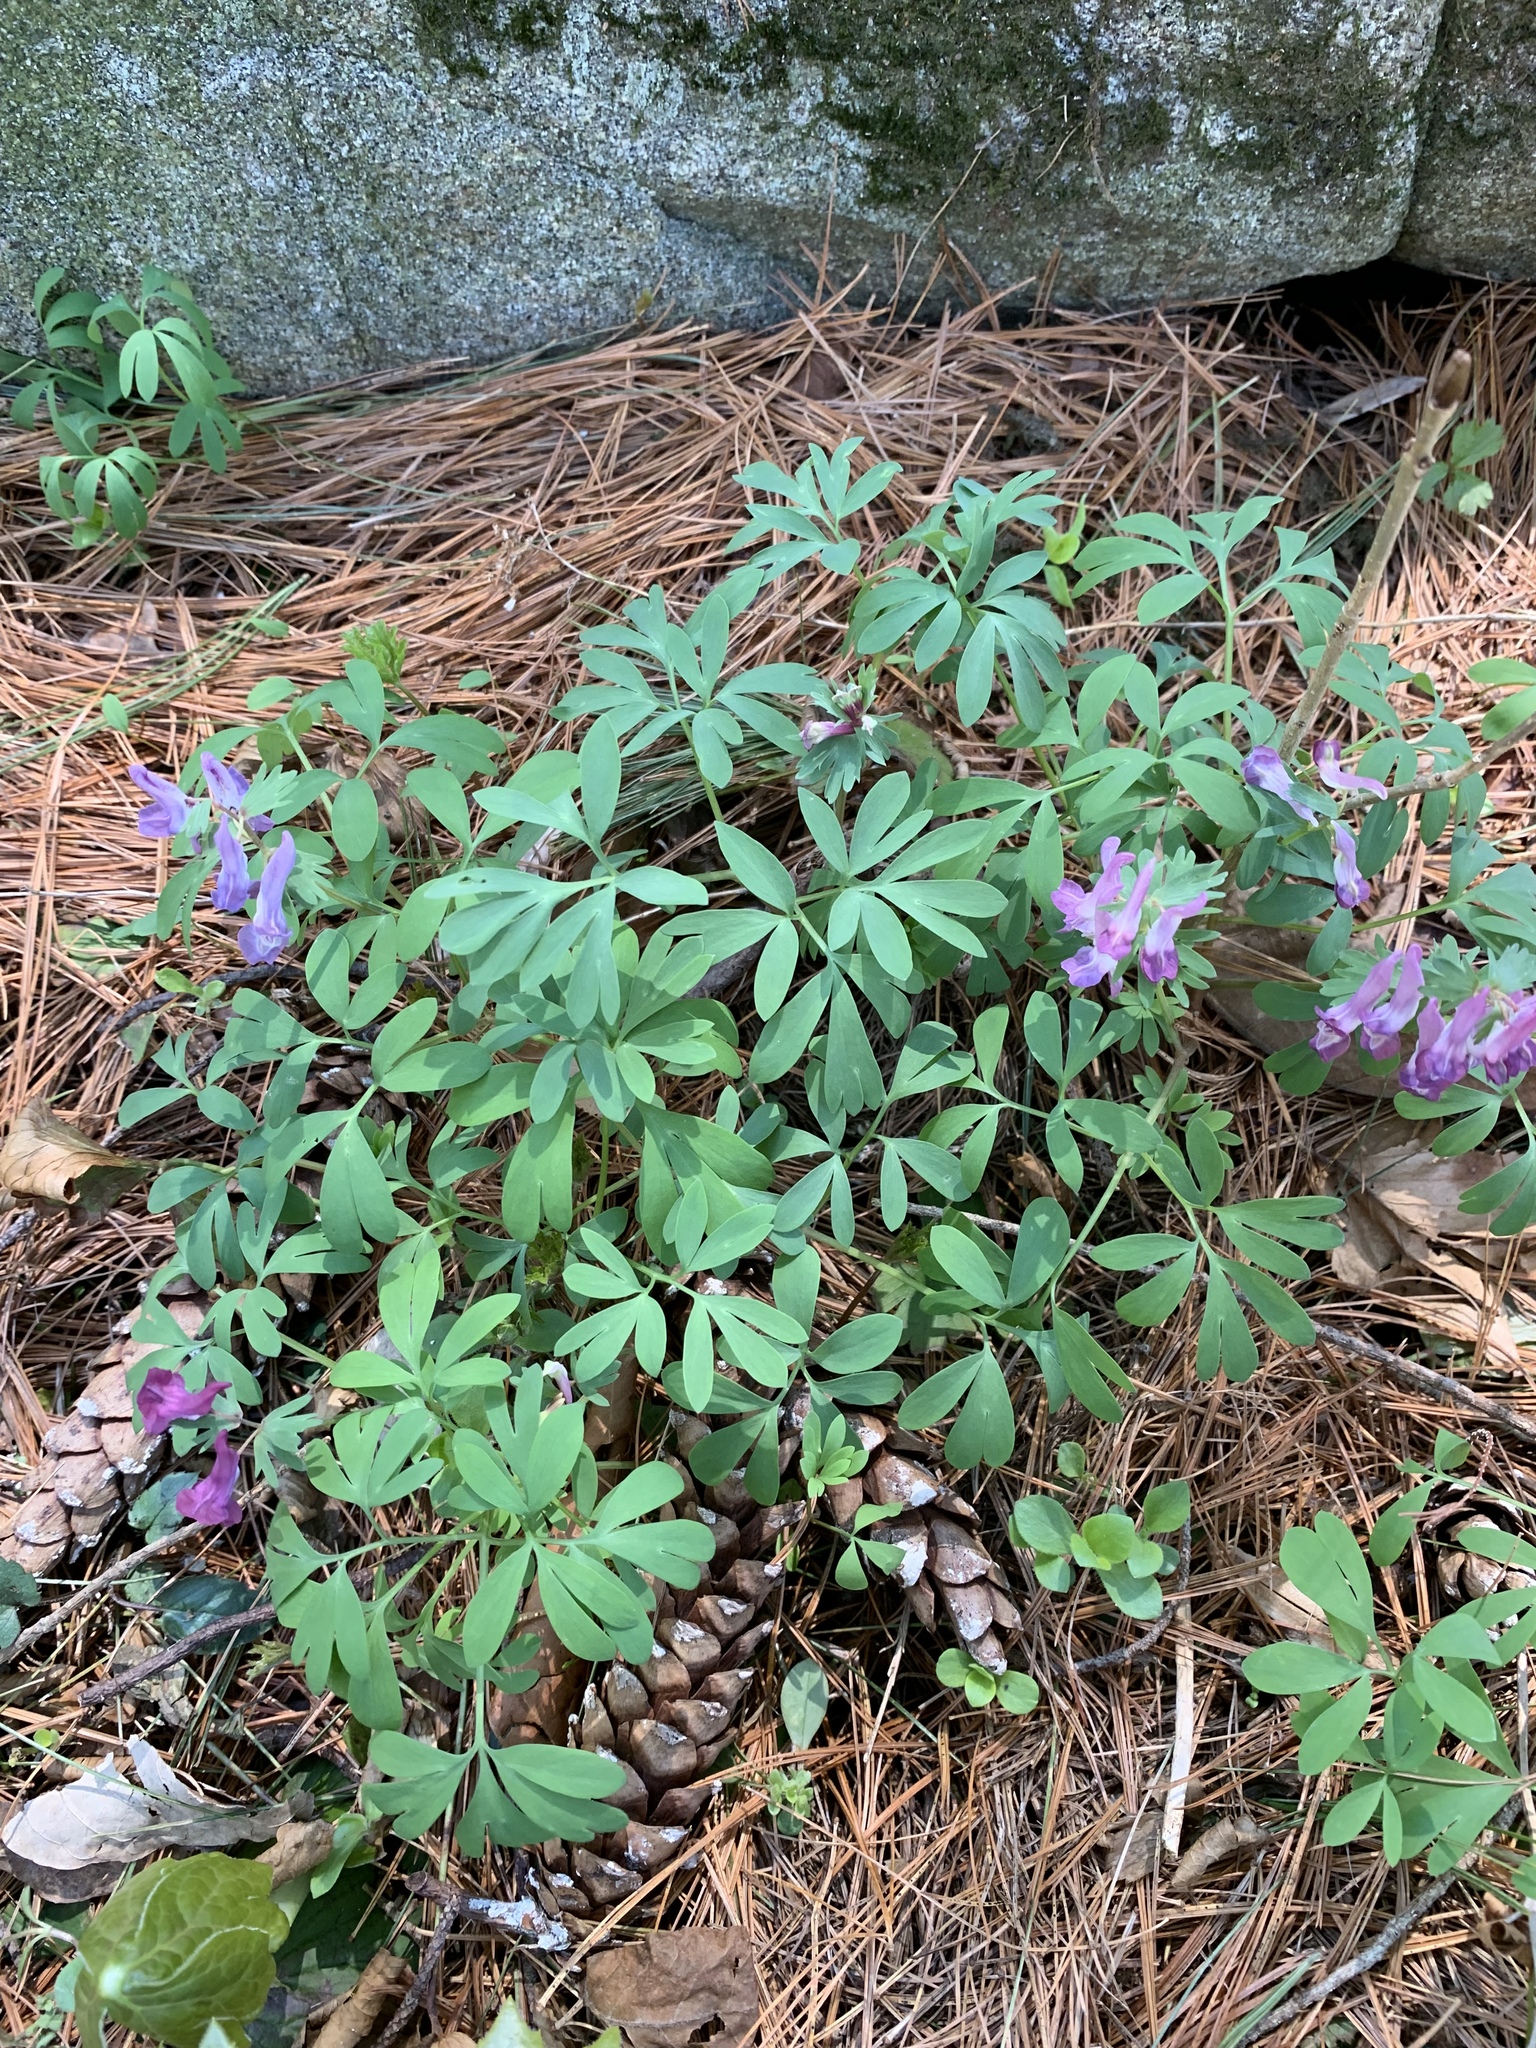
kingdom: Plantae
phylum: Tracheophyta
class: Magnoliopsida
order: Ranunculales
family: Papaveraceae
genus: Corydalis
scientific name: Corydalis solida
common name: Bird-in-a-bush
